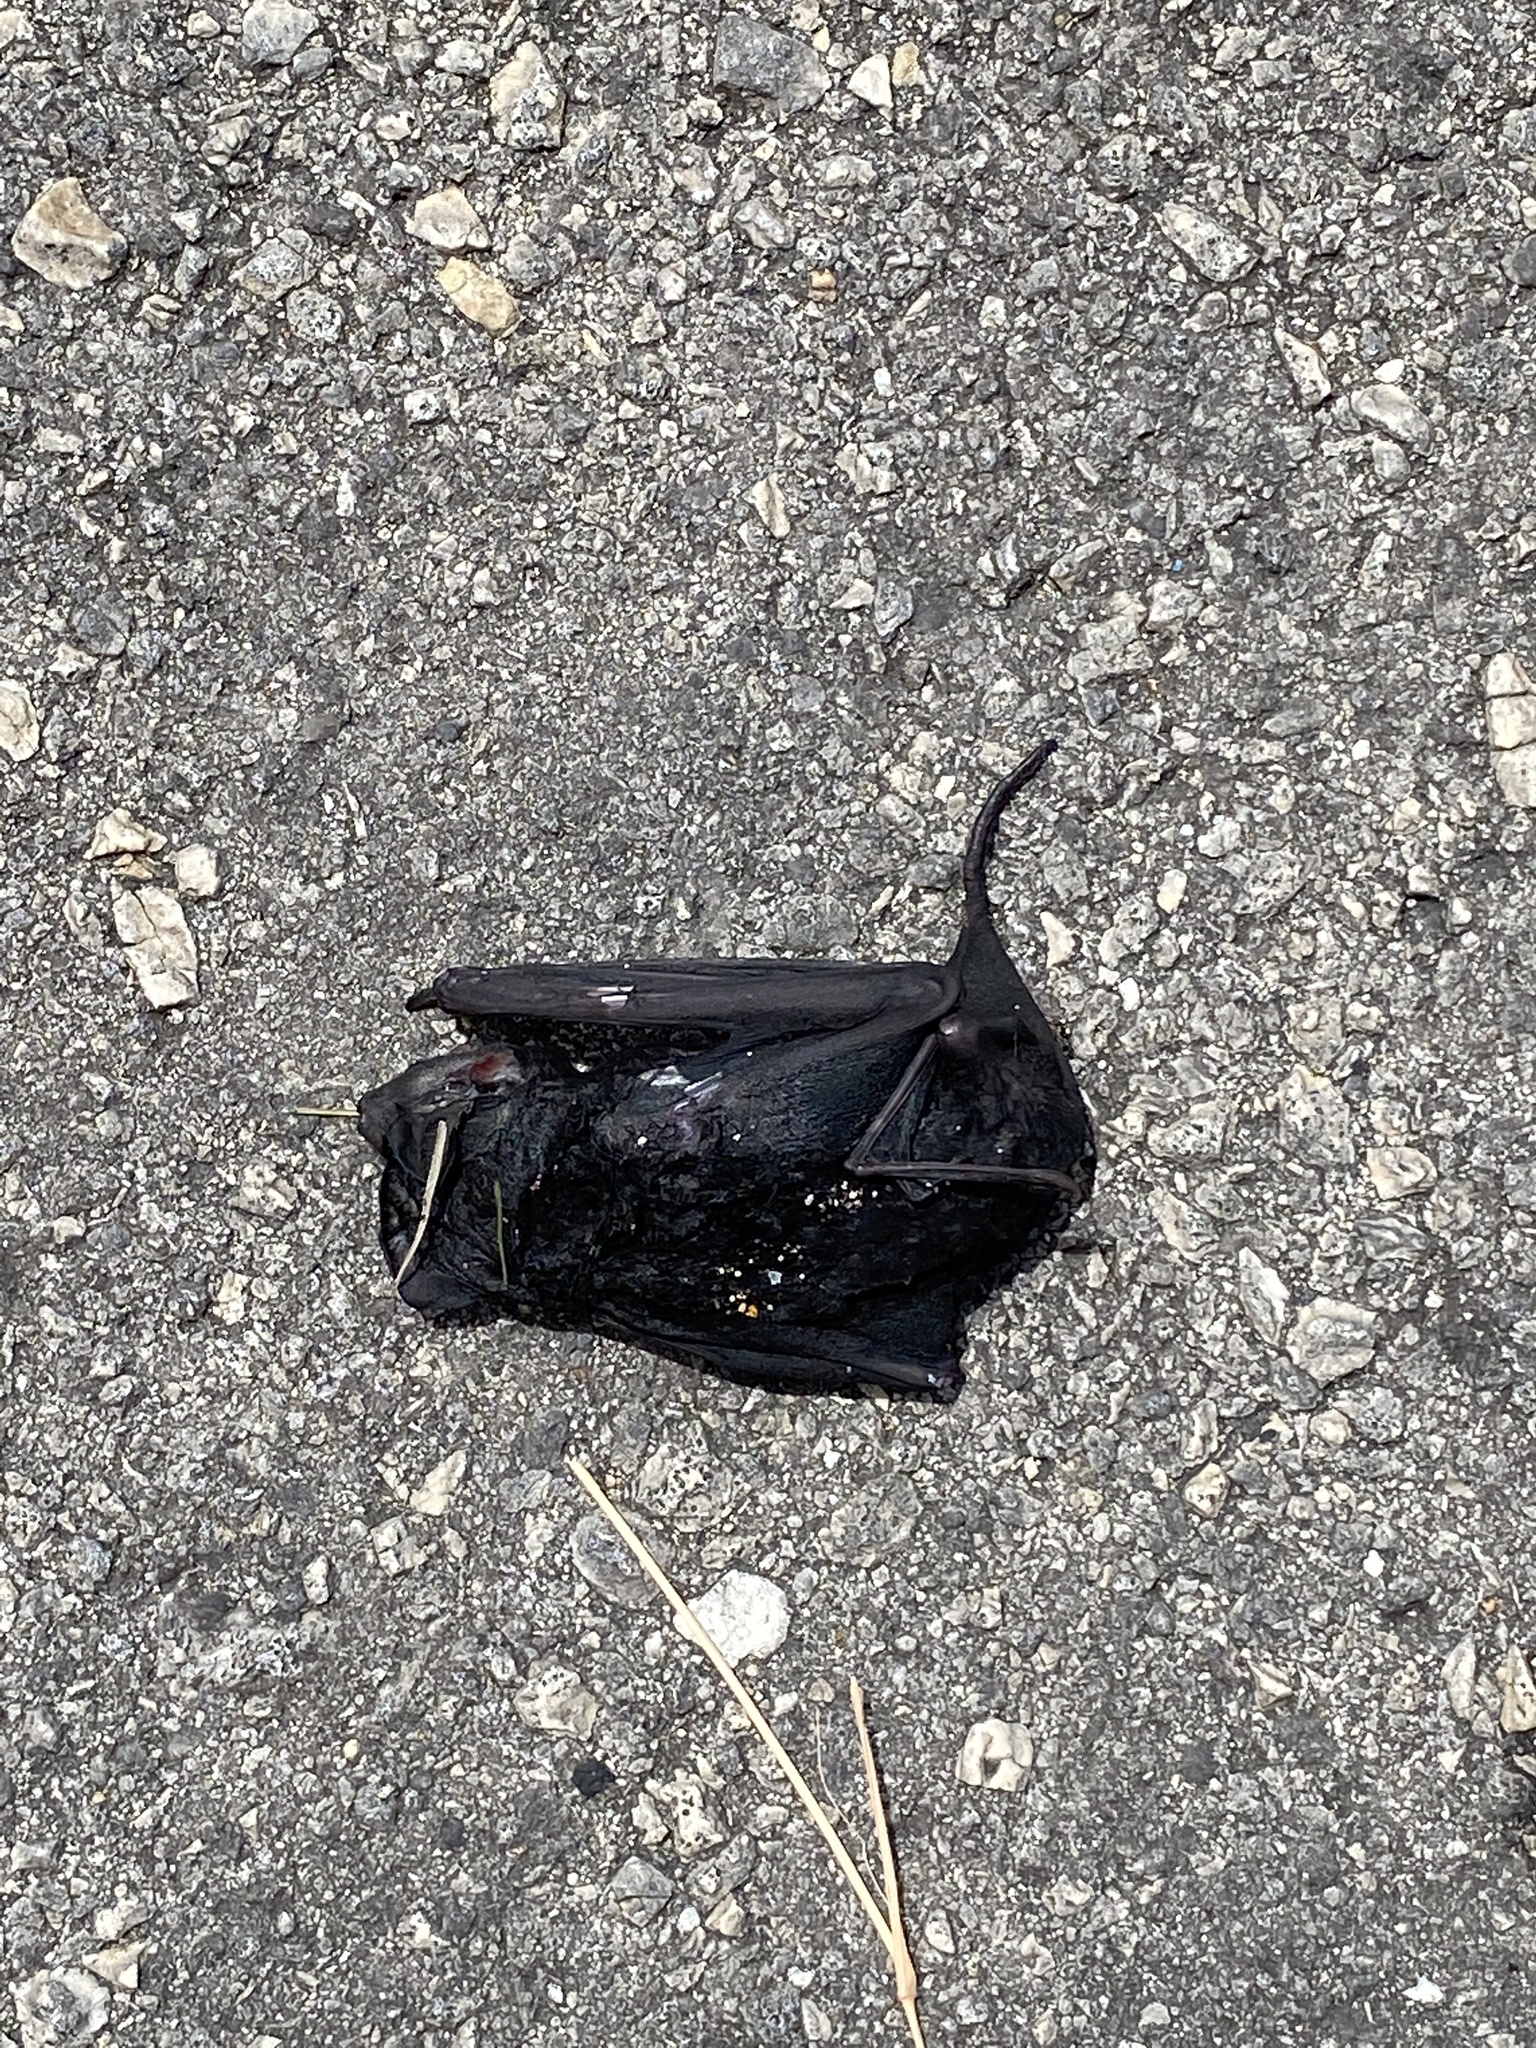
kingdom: Animalia
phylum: Chordata
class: Mammalia
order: Chiroptera
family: Molossidae
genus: Molossus
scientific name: Molossus rufus
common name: Black mastiff bat
